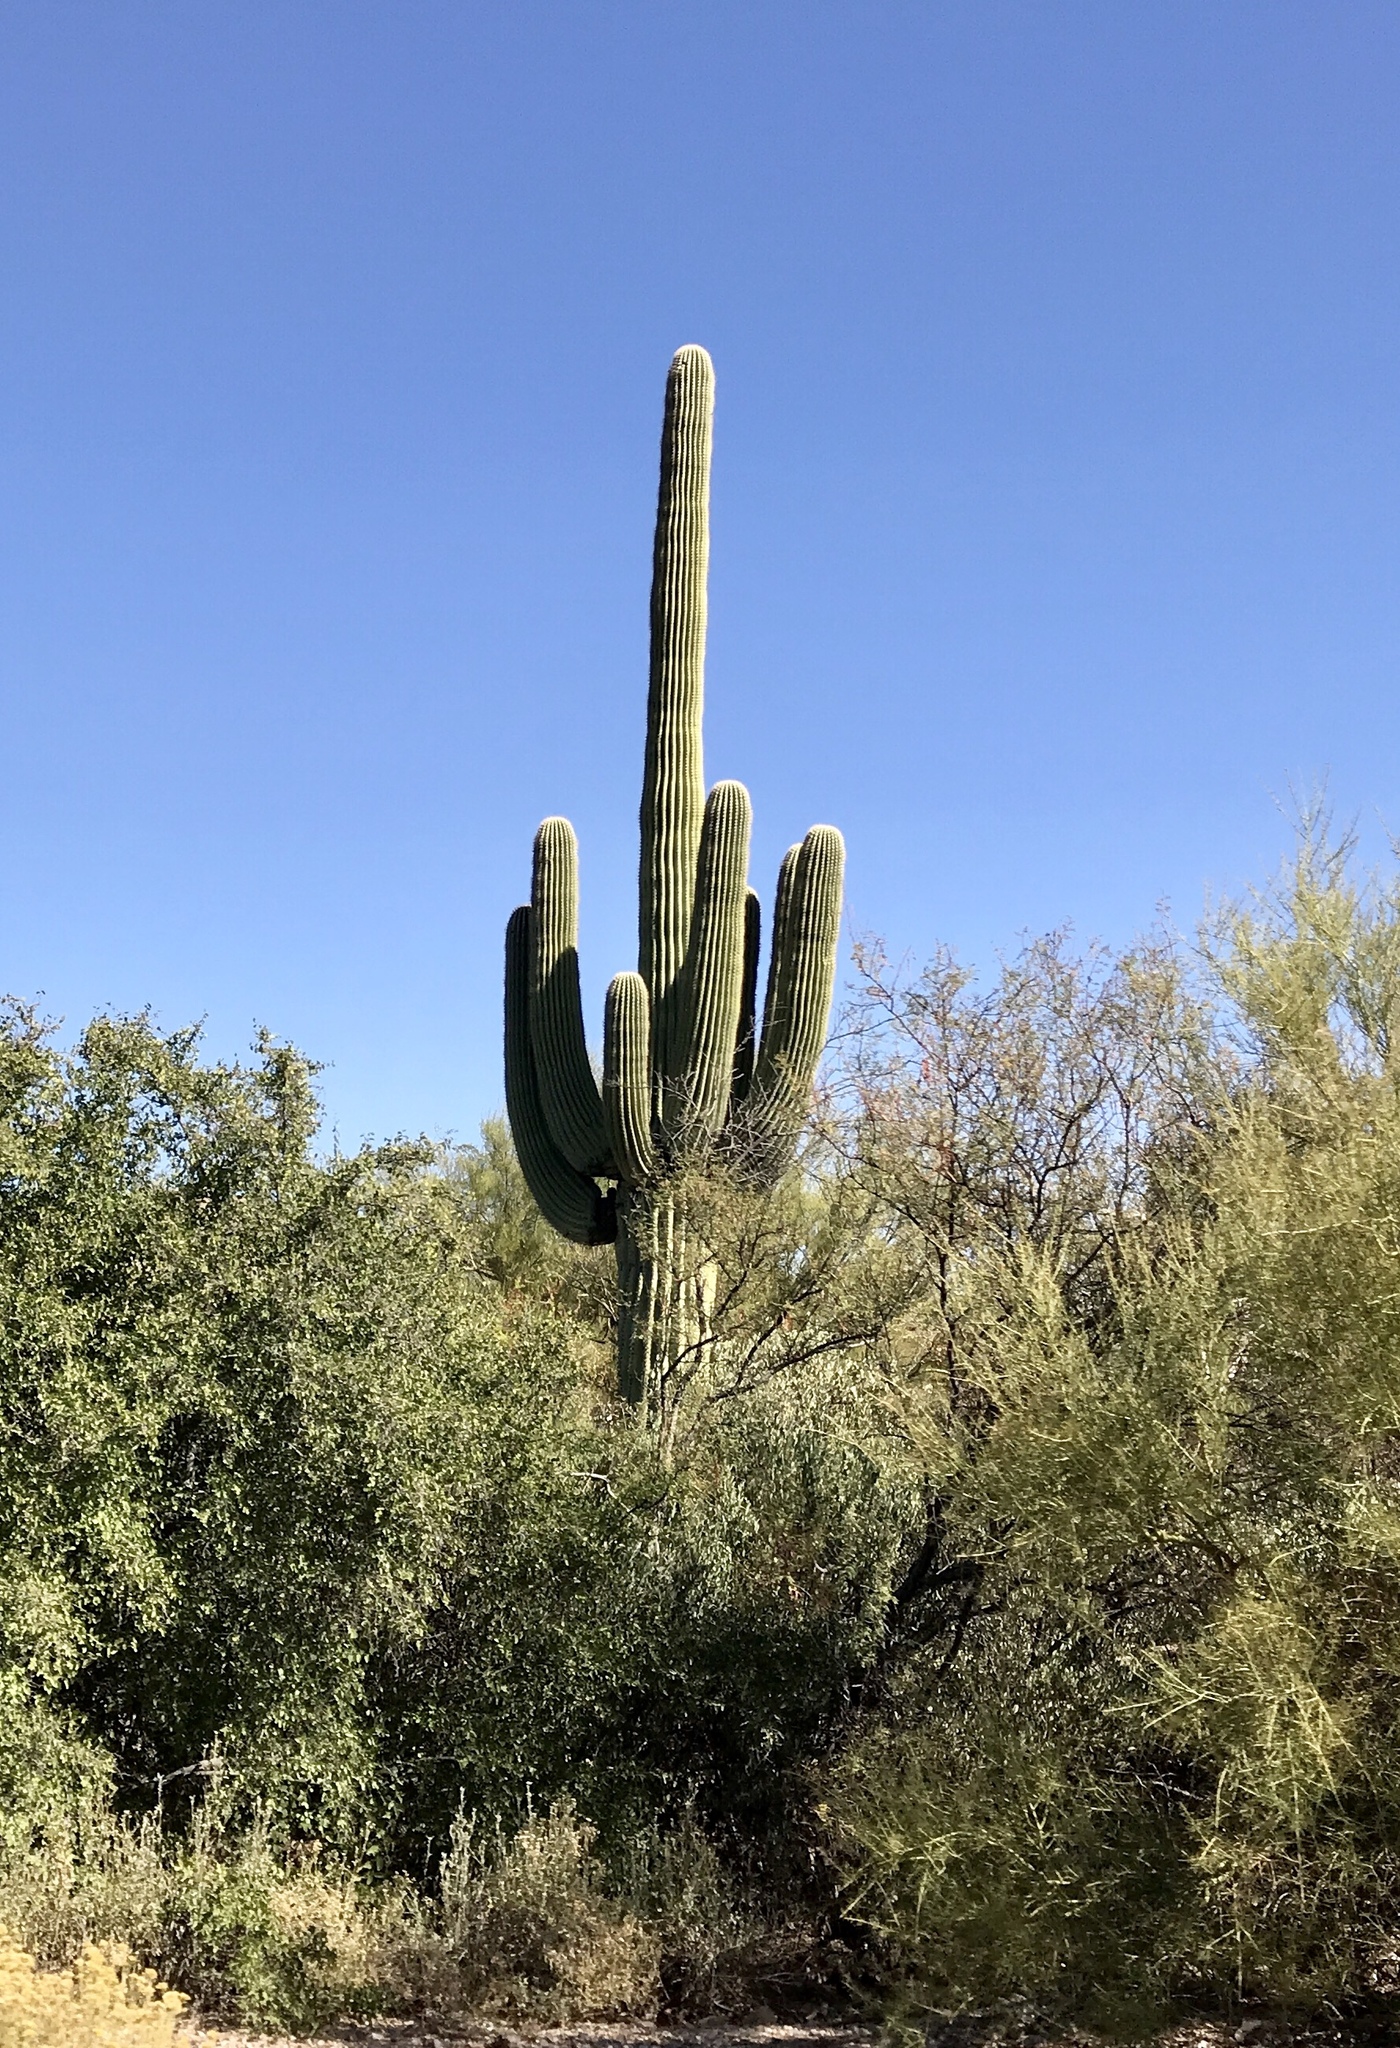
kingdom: Plantae
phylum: Tracheophyta
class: Magnoliopsida
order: Caryophyllales
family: Cactaceae
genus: Carnegiea
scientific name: Carnegiea gigantea
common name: Saguaro
